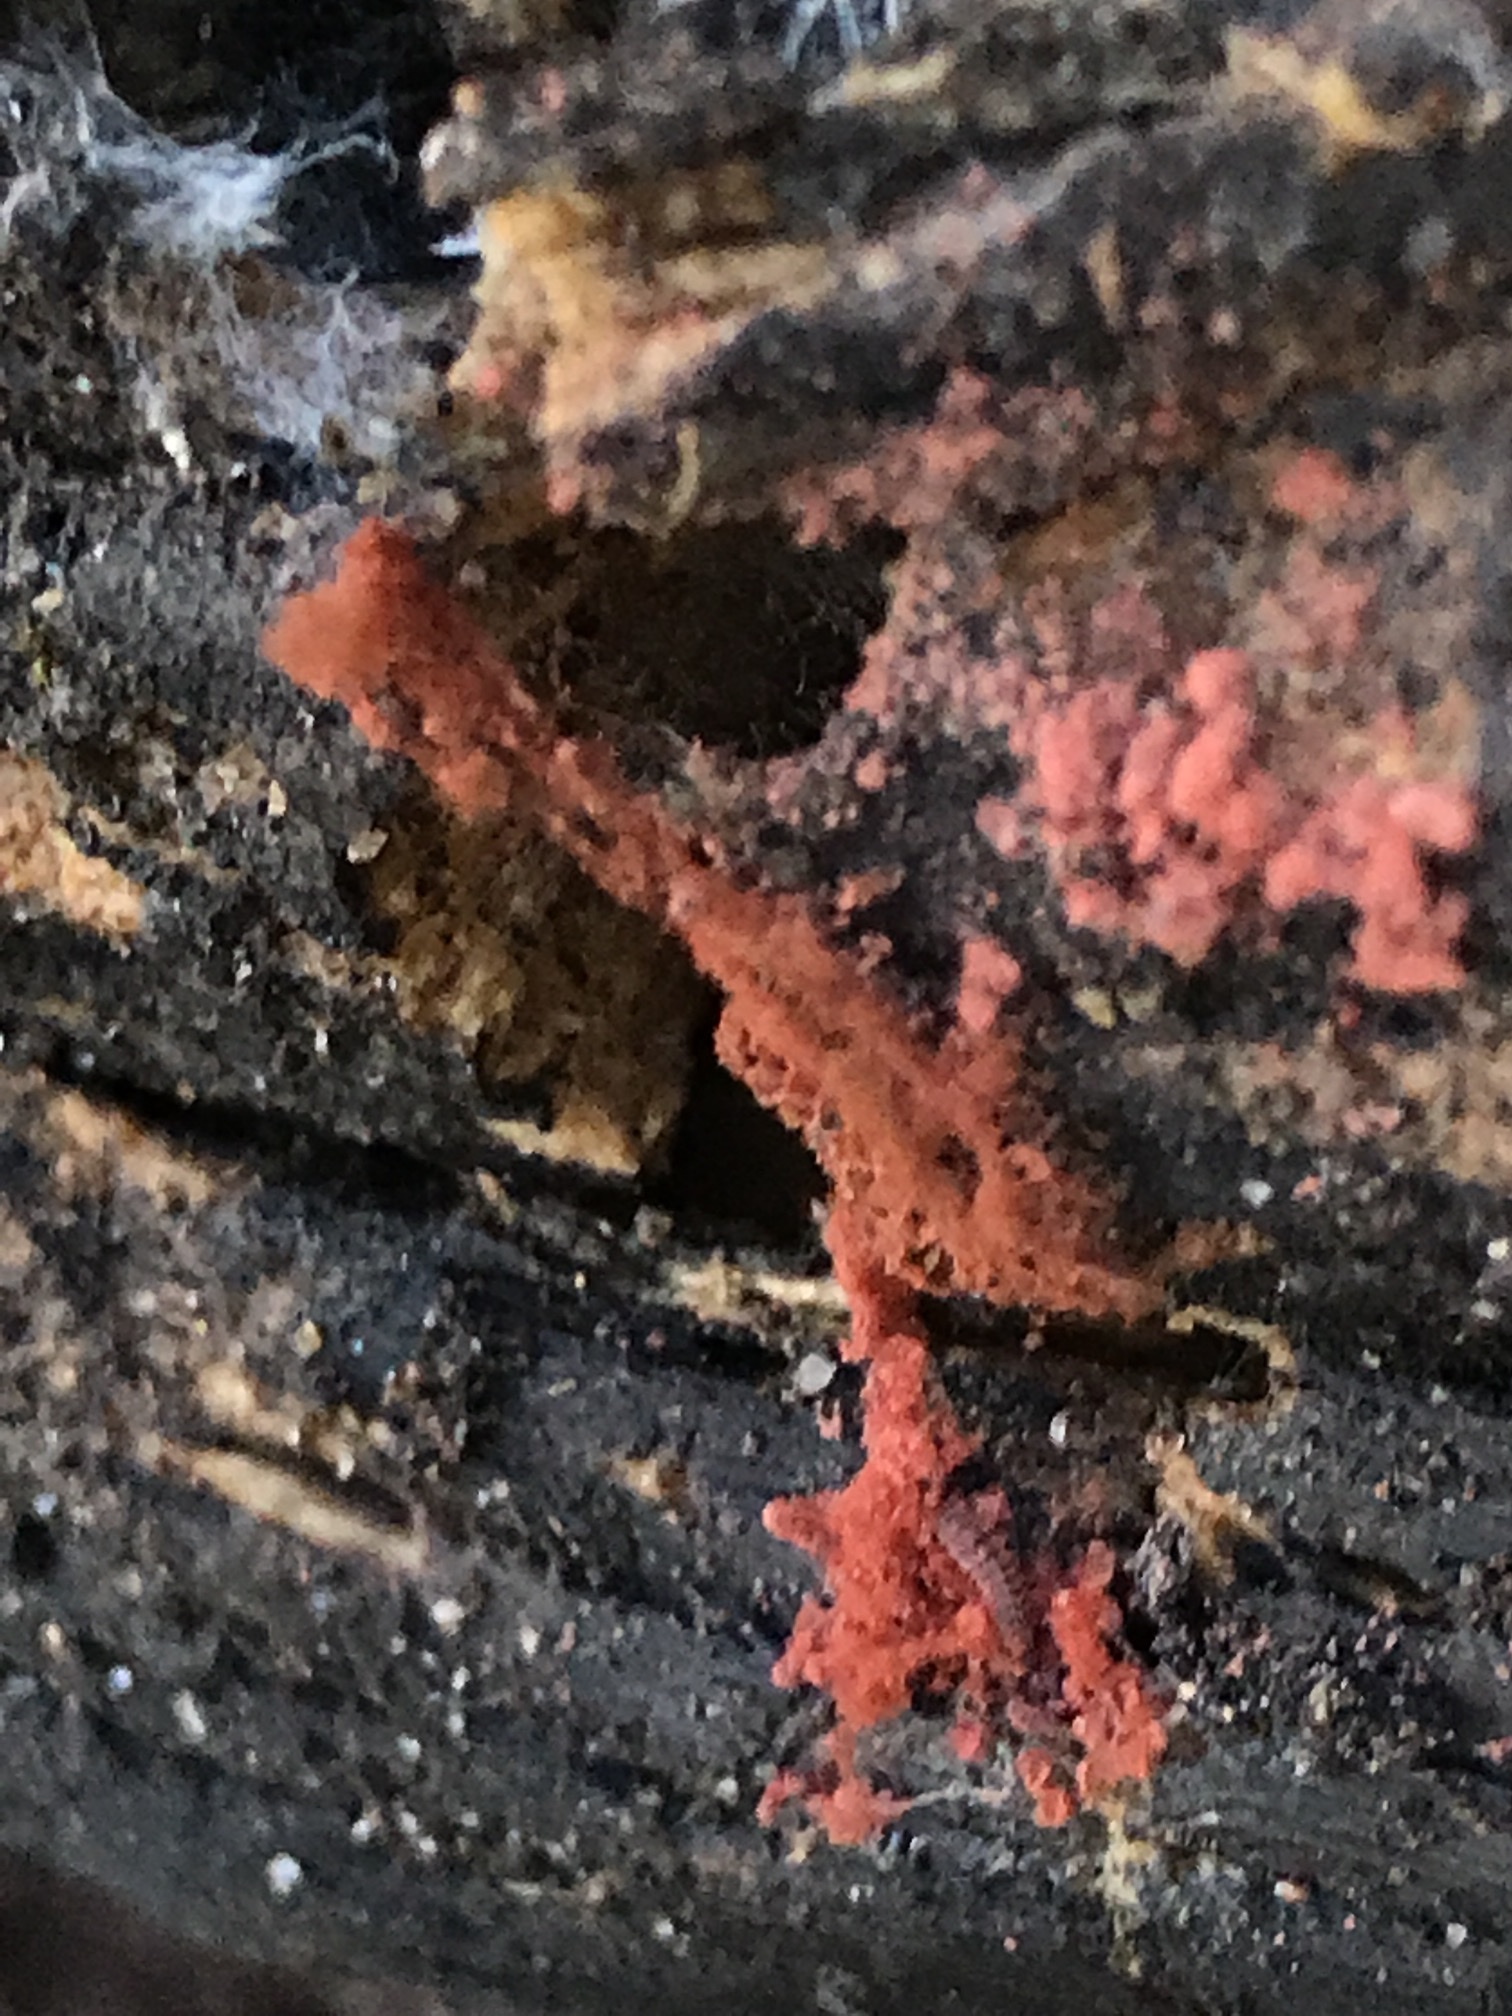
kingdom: Protozoa
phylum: Mycetozoa
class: Myxomycetes
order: Trichiales
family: Arcyriaceae
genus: Arcyria
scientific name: Arcyria denudata
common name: Carnival candy slime mold
